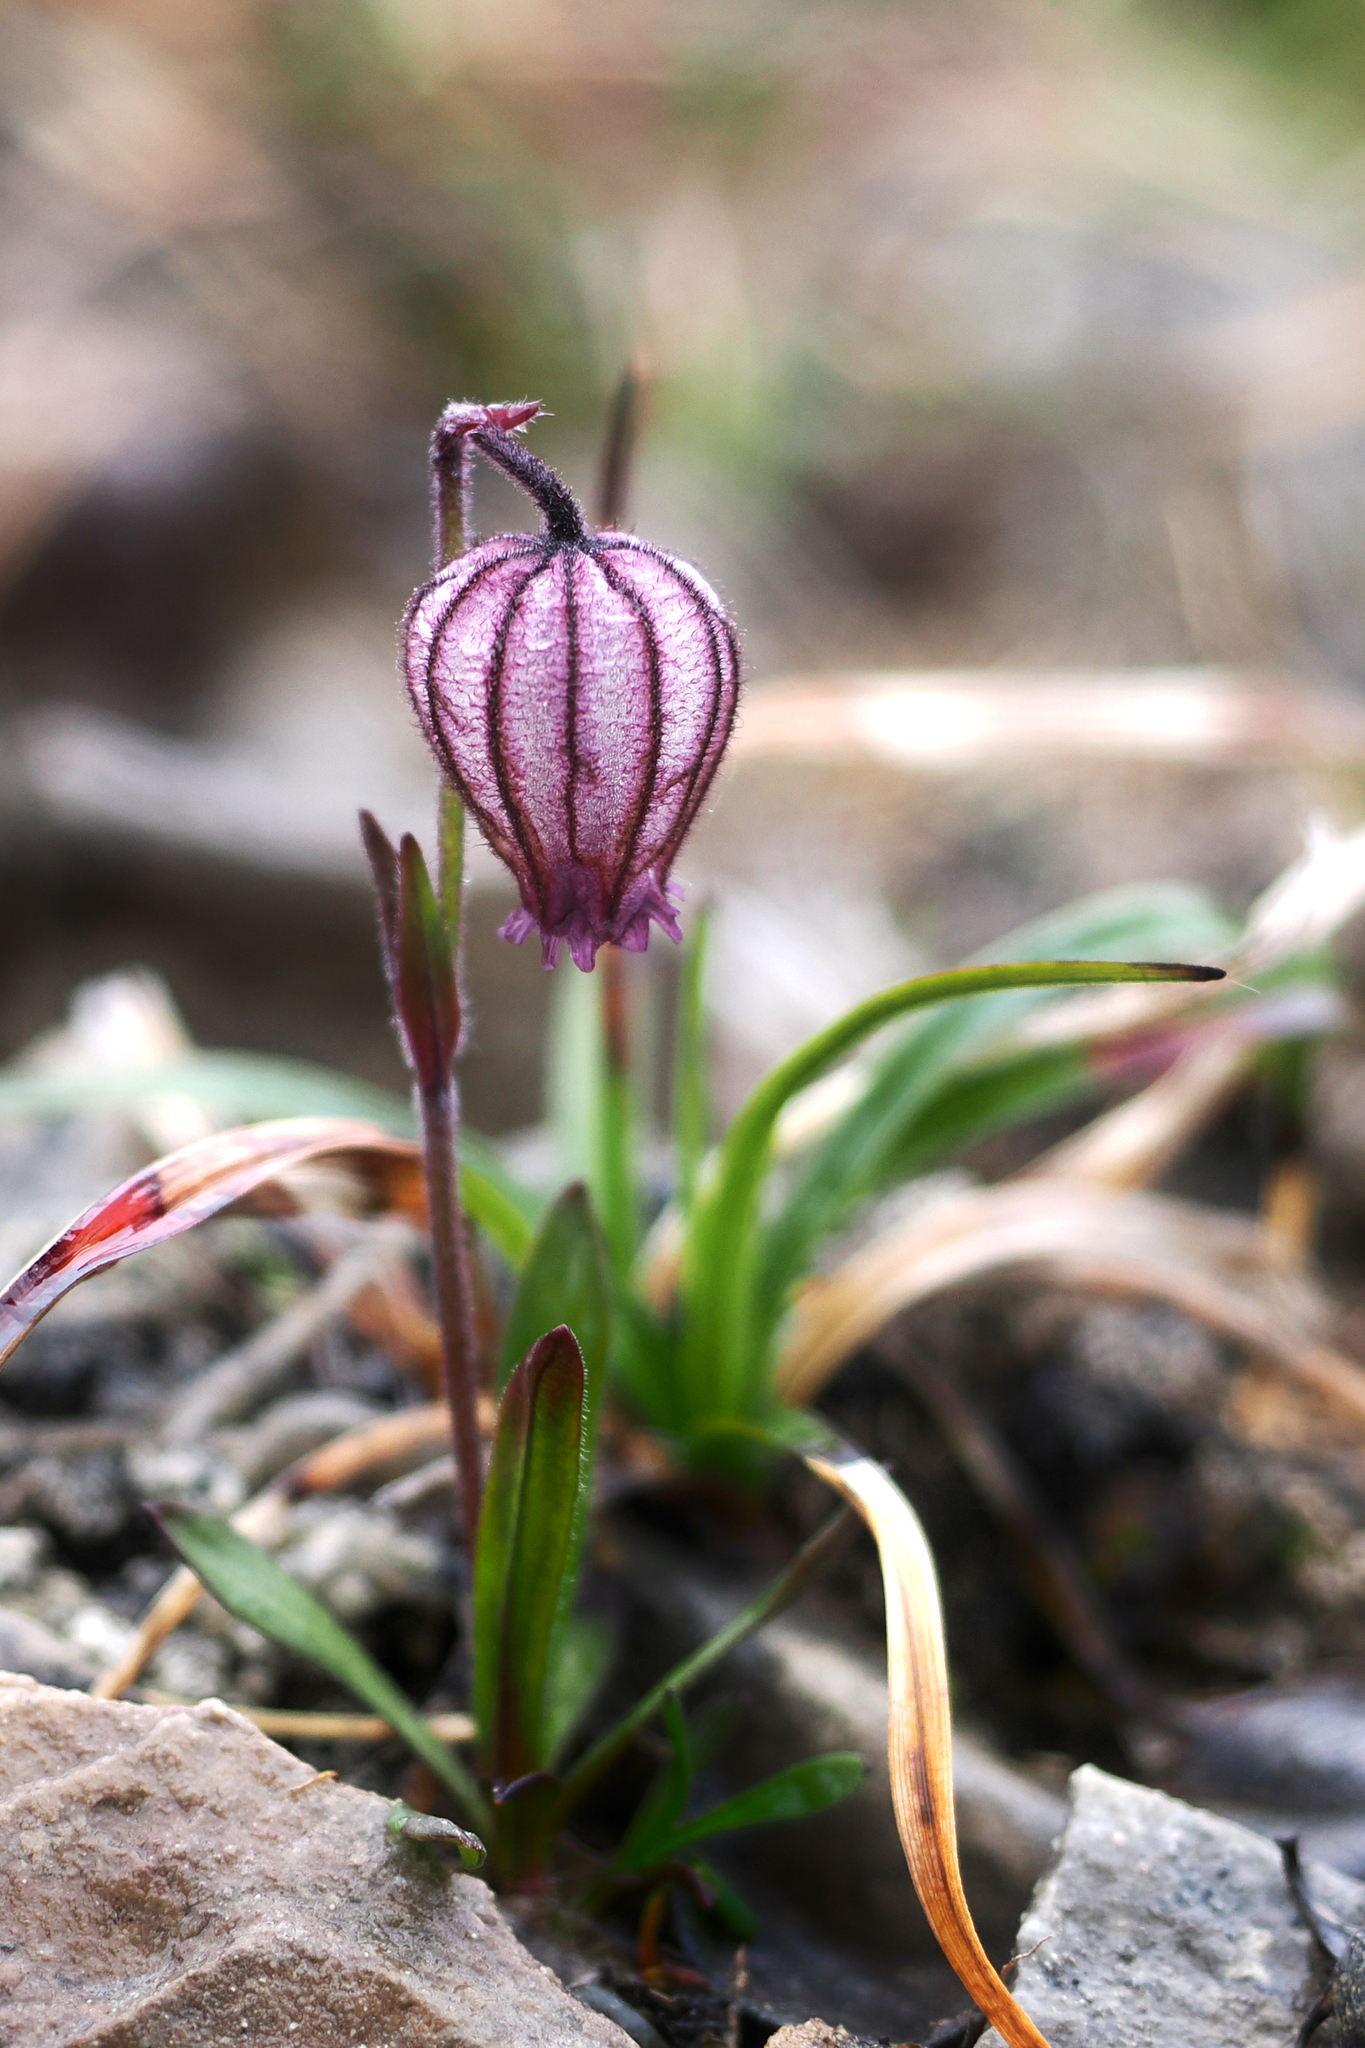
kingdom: Plantae
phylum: Tracheophyta
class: Magnoliopsida
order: Caryophyllales
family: Caryophyllaceae
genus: Silene
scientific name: Silene uralensis
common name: Nodding campion
